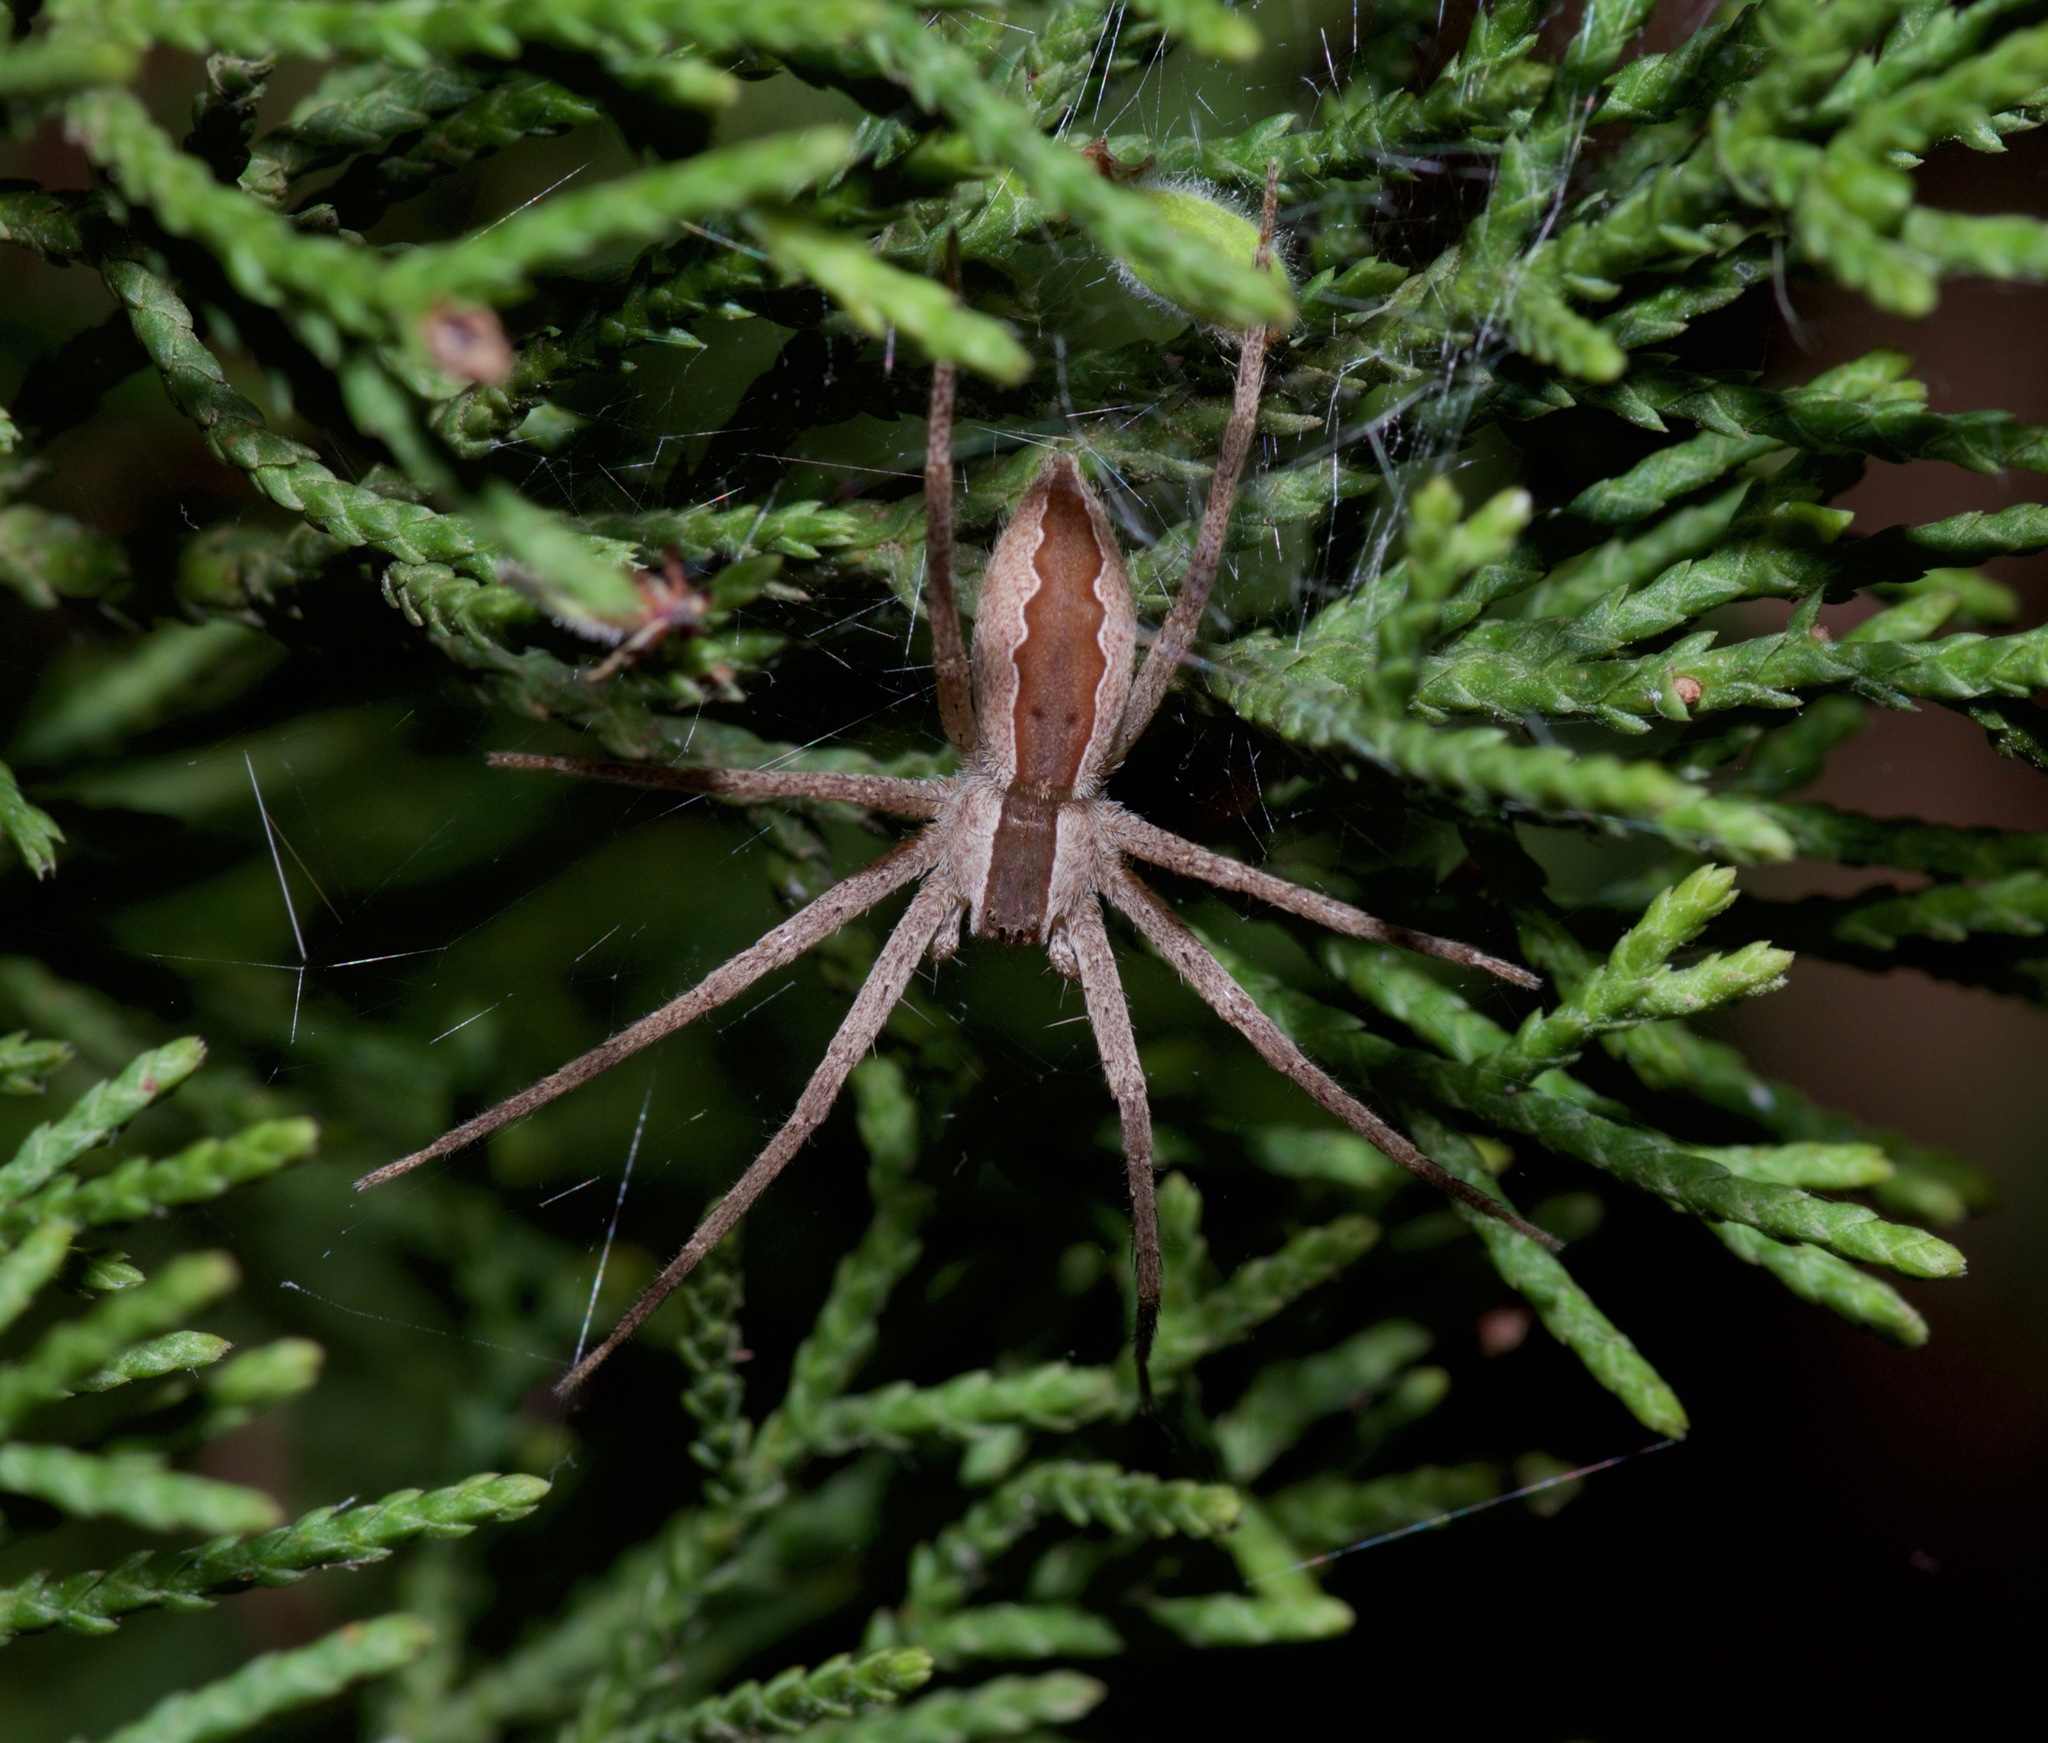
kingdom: Animalia
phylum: Arthropoda
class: Arachnida
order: Araneae
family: Pisauridae
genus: Pisaurina
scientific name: Pisaurina mira
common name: American nursery web spider
